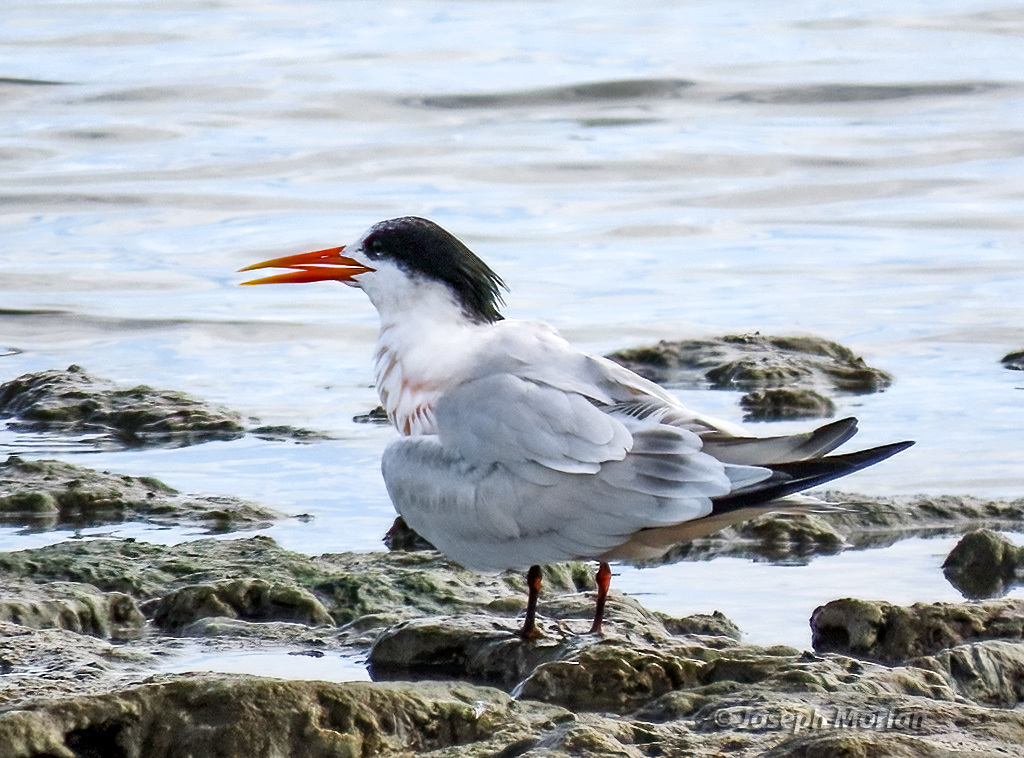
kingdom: Animalia
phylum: Chordata
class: Aves
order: Charadriiformes
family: Laridae
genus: Thalasseus
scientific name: Thalasseus elegans
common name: Elegant tern
